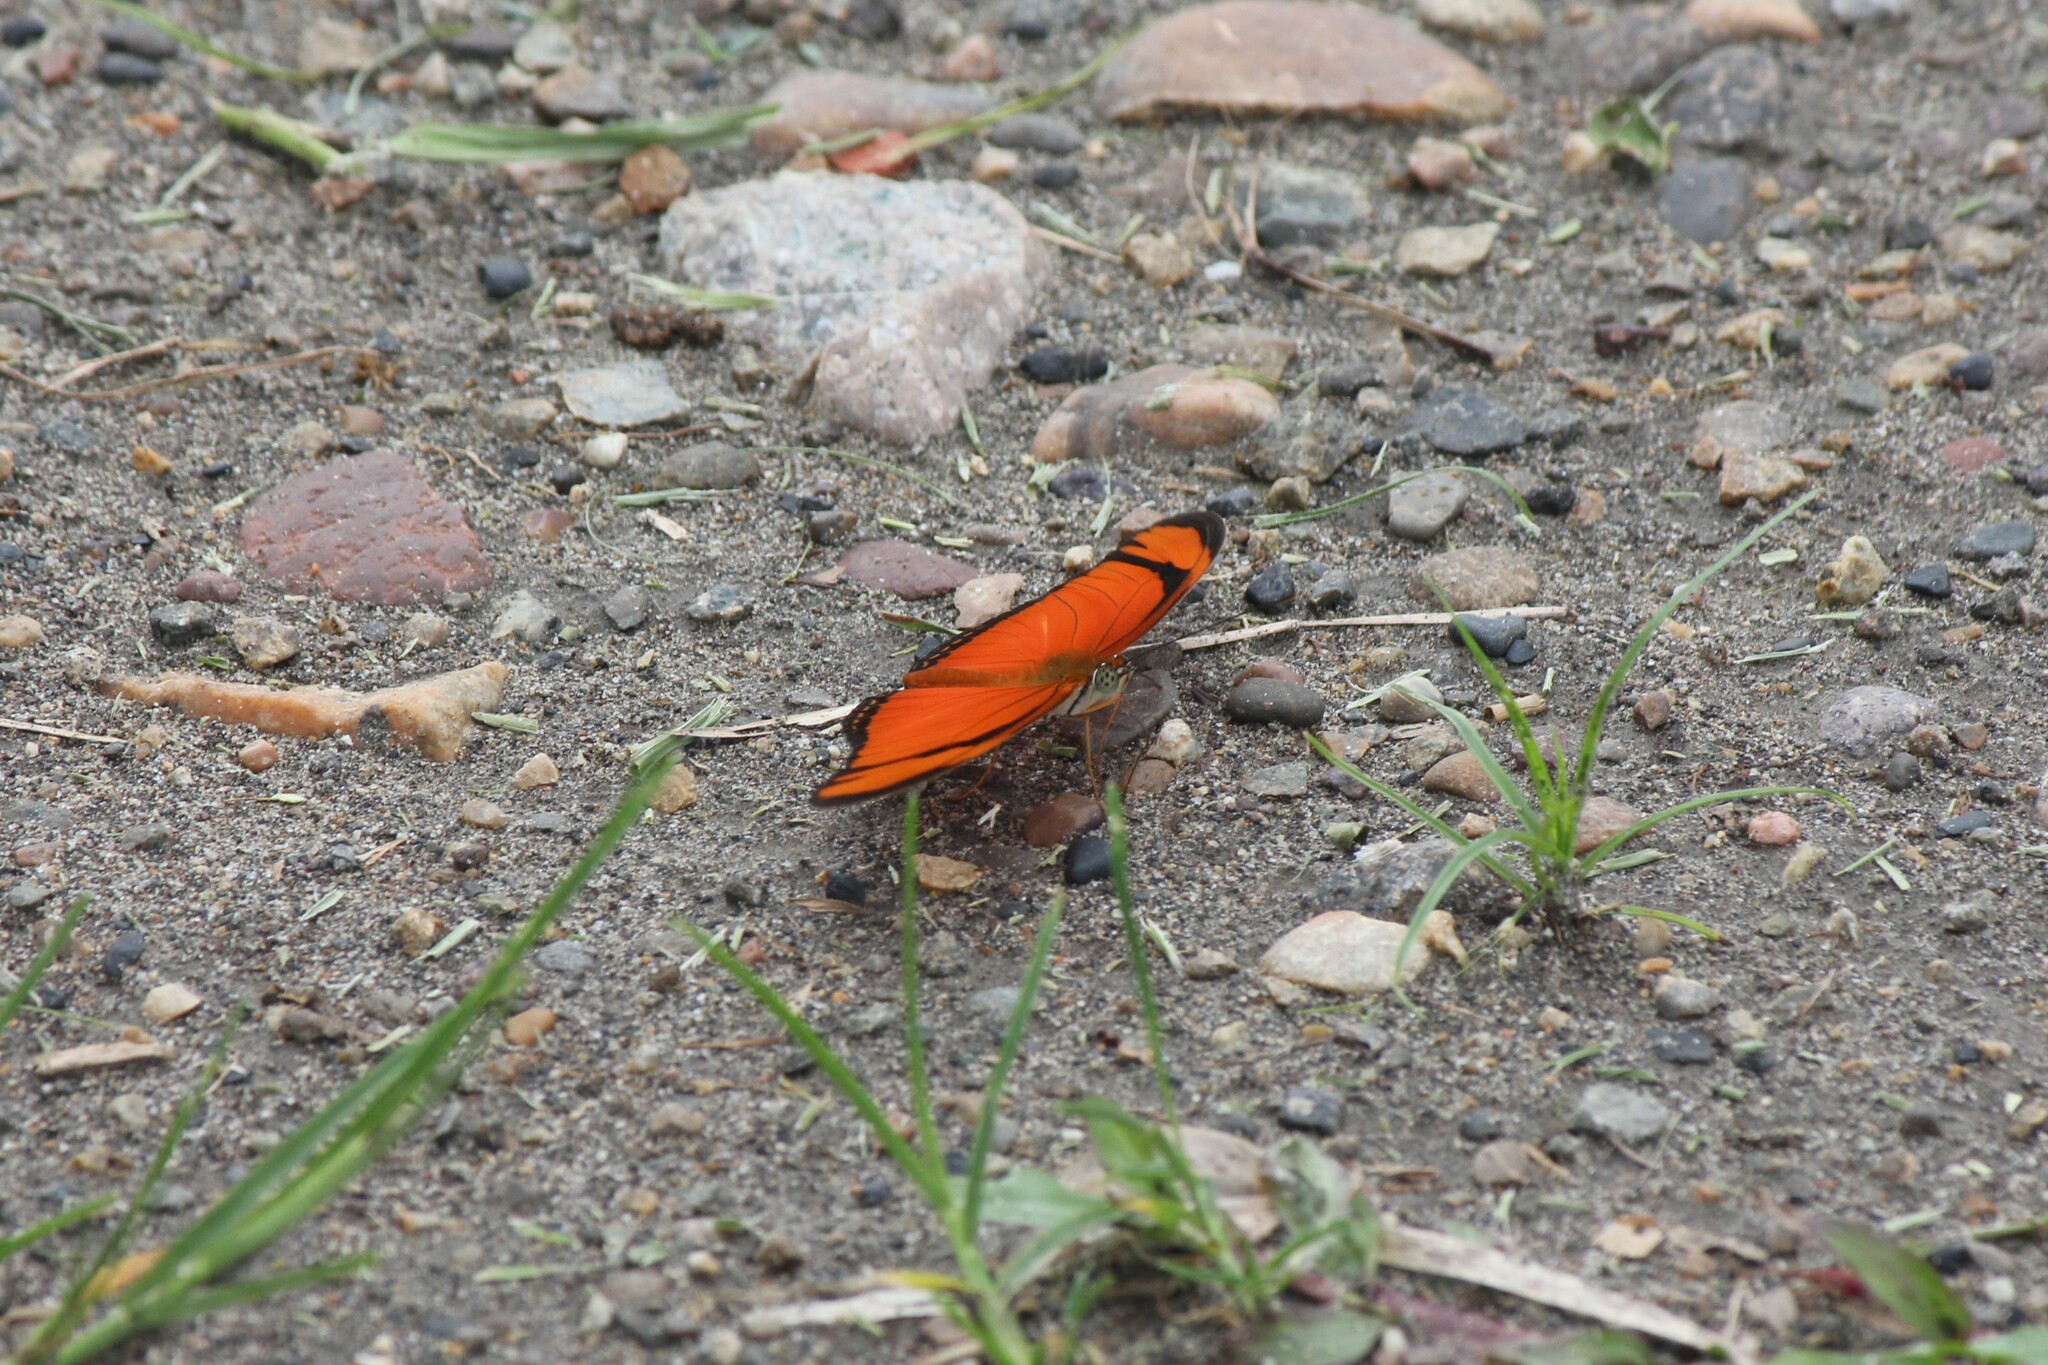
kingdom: Animalia
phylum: Arthropoda
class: Insecta
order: Lepidoptera
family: Nymphalidae
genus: Dryas
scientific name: Dryas iulia
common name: Flambeau
